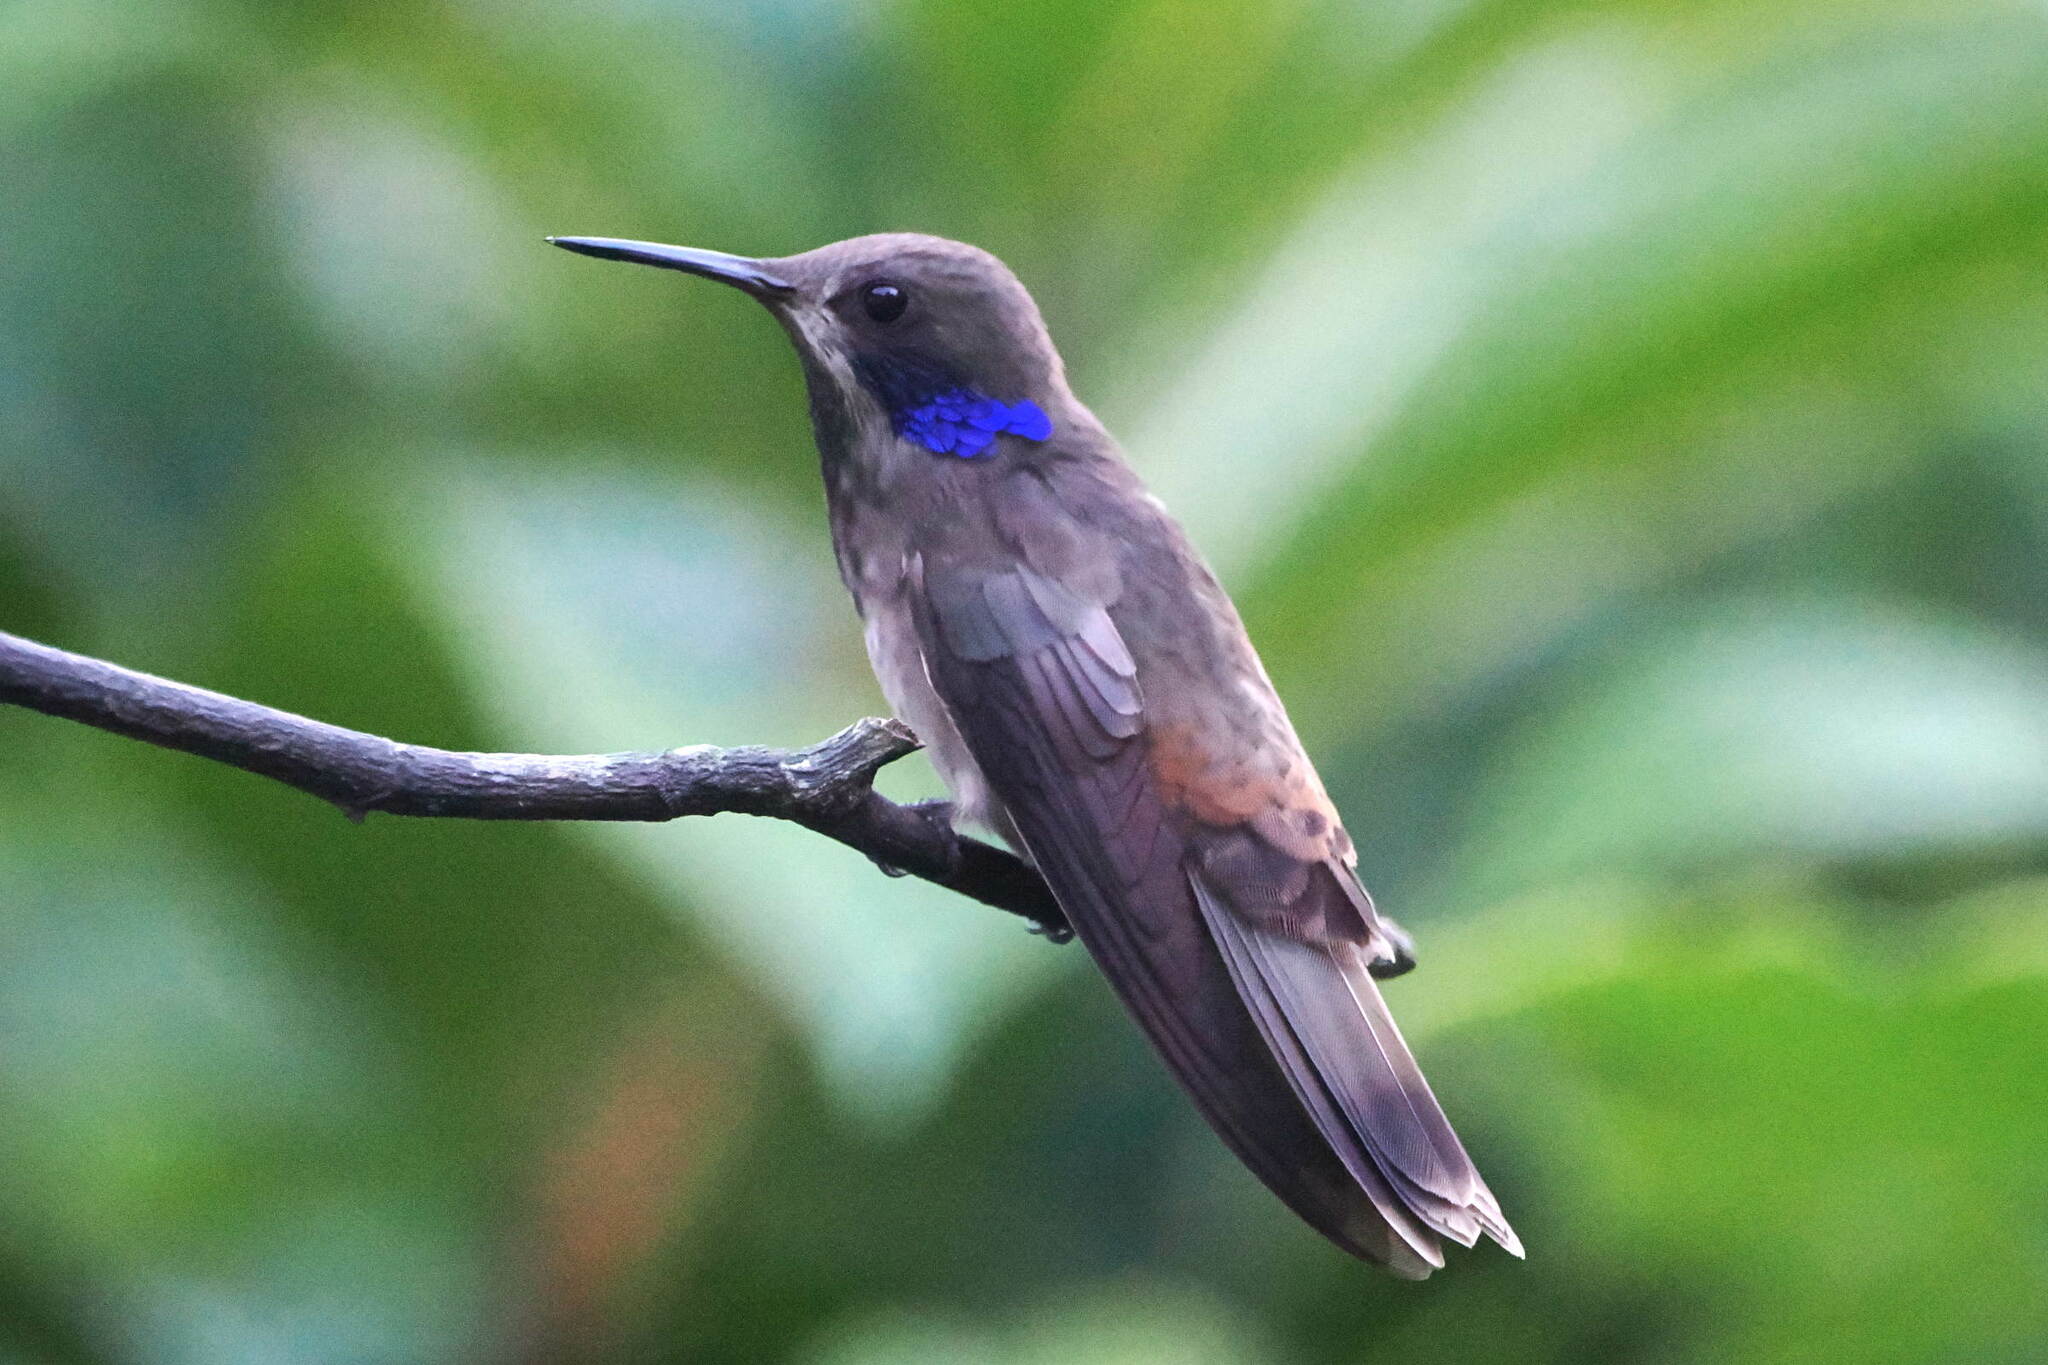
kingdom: Animalia
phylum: Chordata
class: Aves
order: Apodiformes
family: Trochilidae
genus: Colibri
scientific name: Colibri delphinae
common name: Brown violetear
